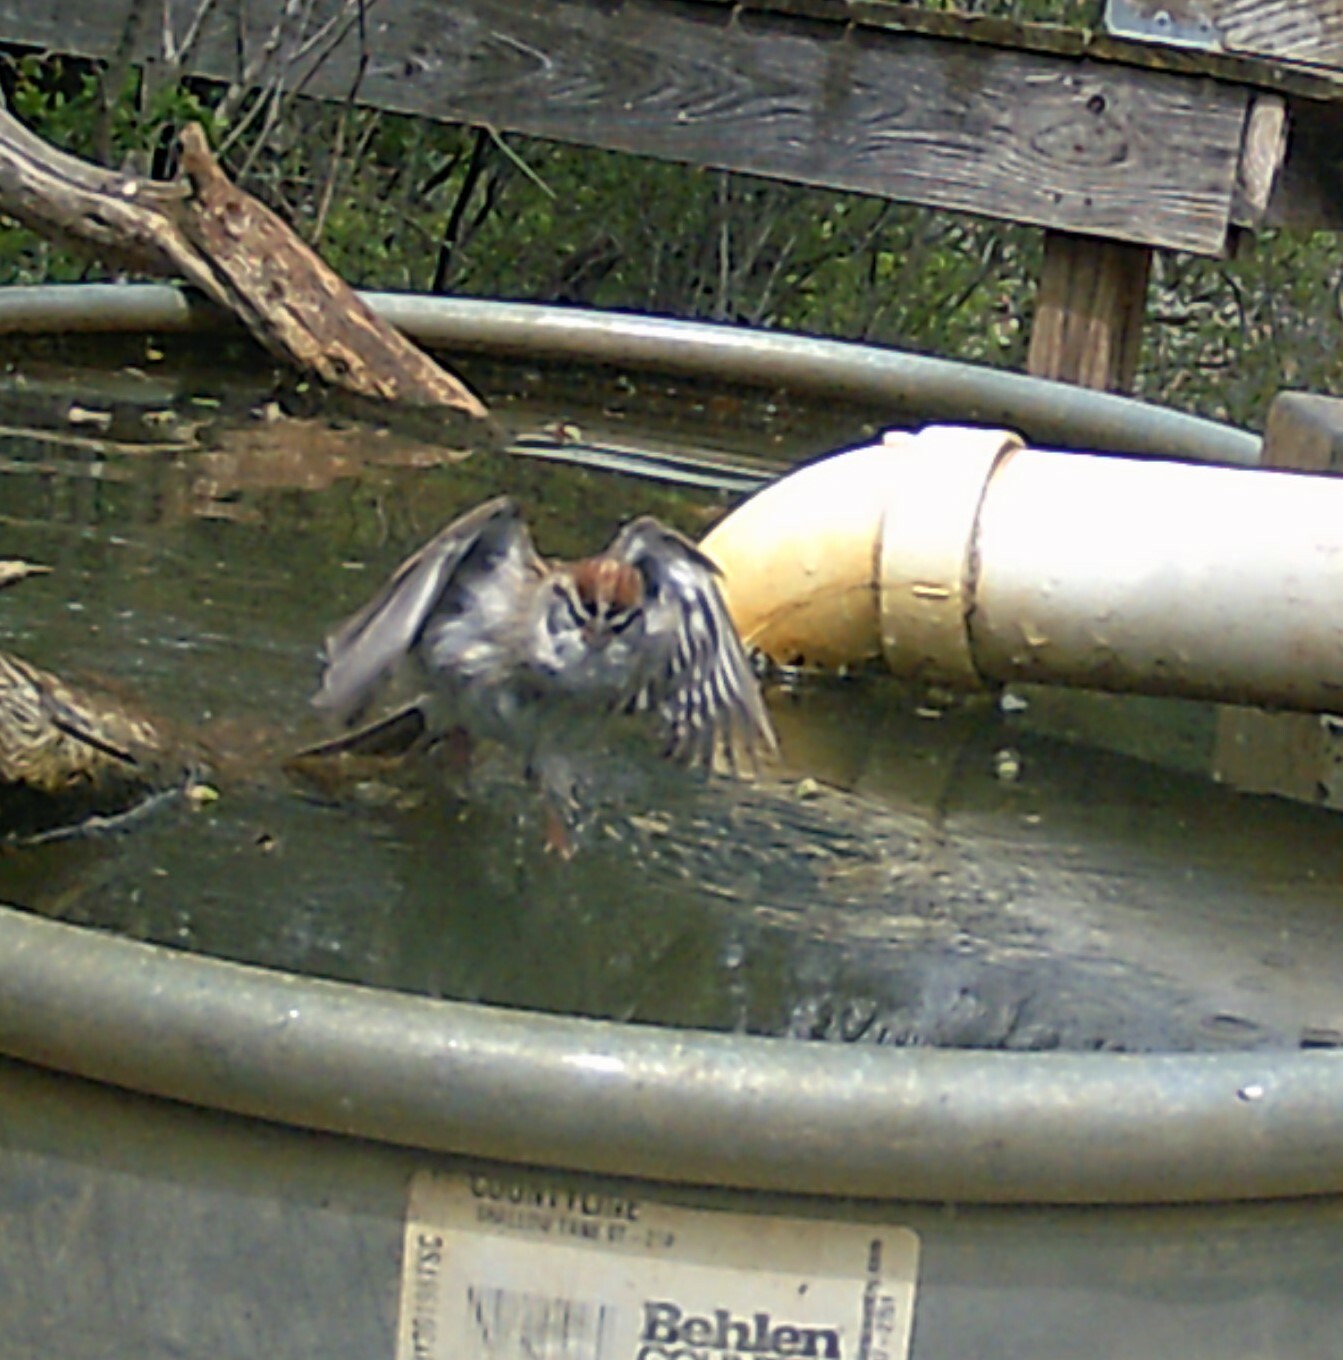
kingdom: Animalia
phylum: Chordata
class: Aves
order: Passeriformes
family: Passerellidae
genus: Spizella
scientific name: Spizella passerina
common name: Chipping sparrow
